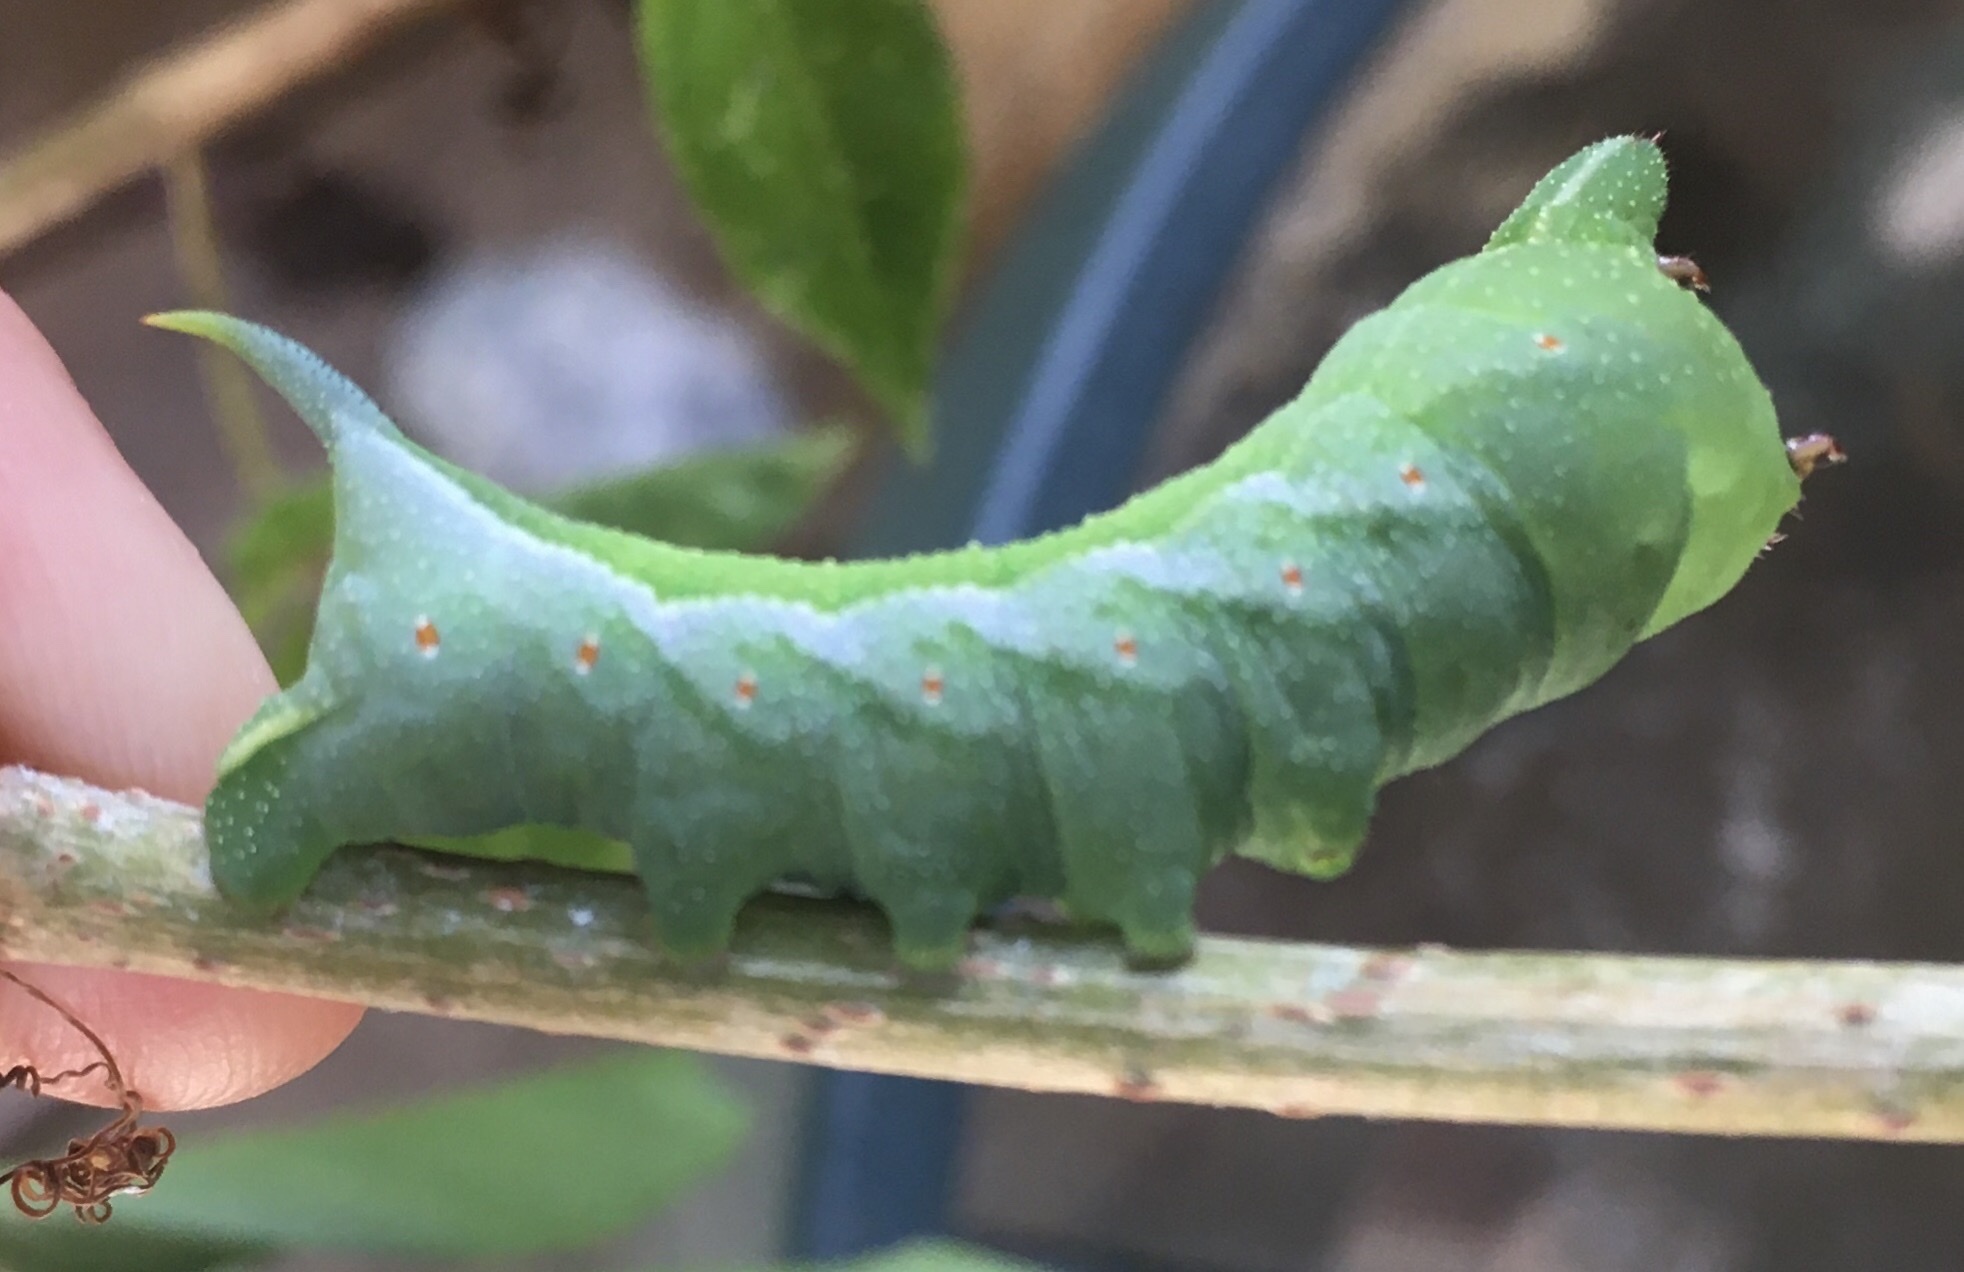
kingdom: Animalia
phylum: Arthropoda
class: Insecta
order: Lepidoptera
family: Sphingidae
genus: Darapsa
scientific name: Darapsa myron
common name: Hog sphinx
